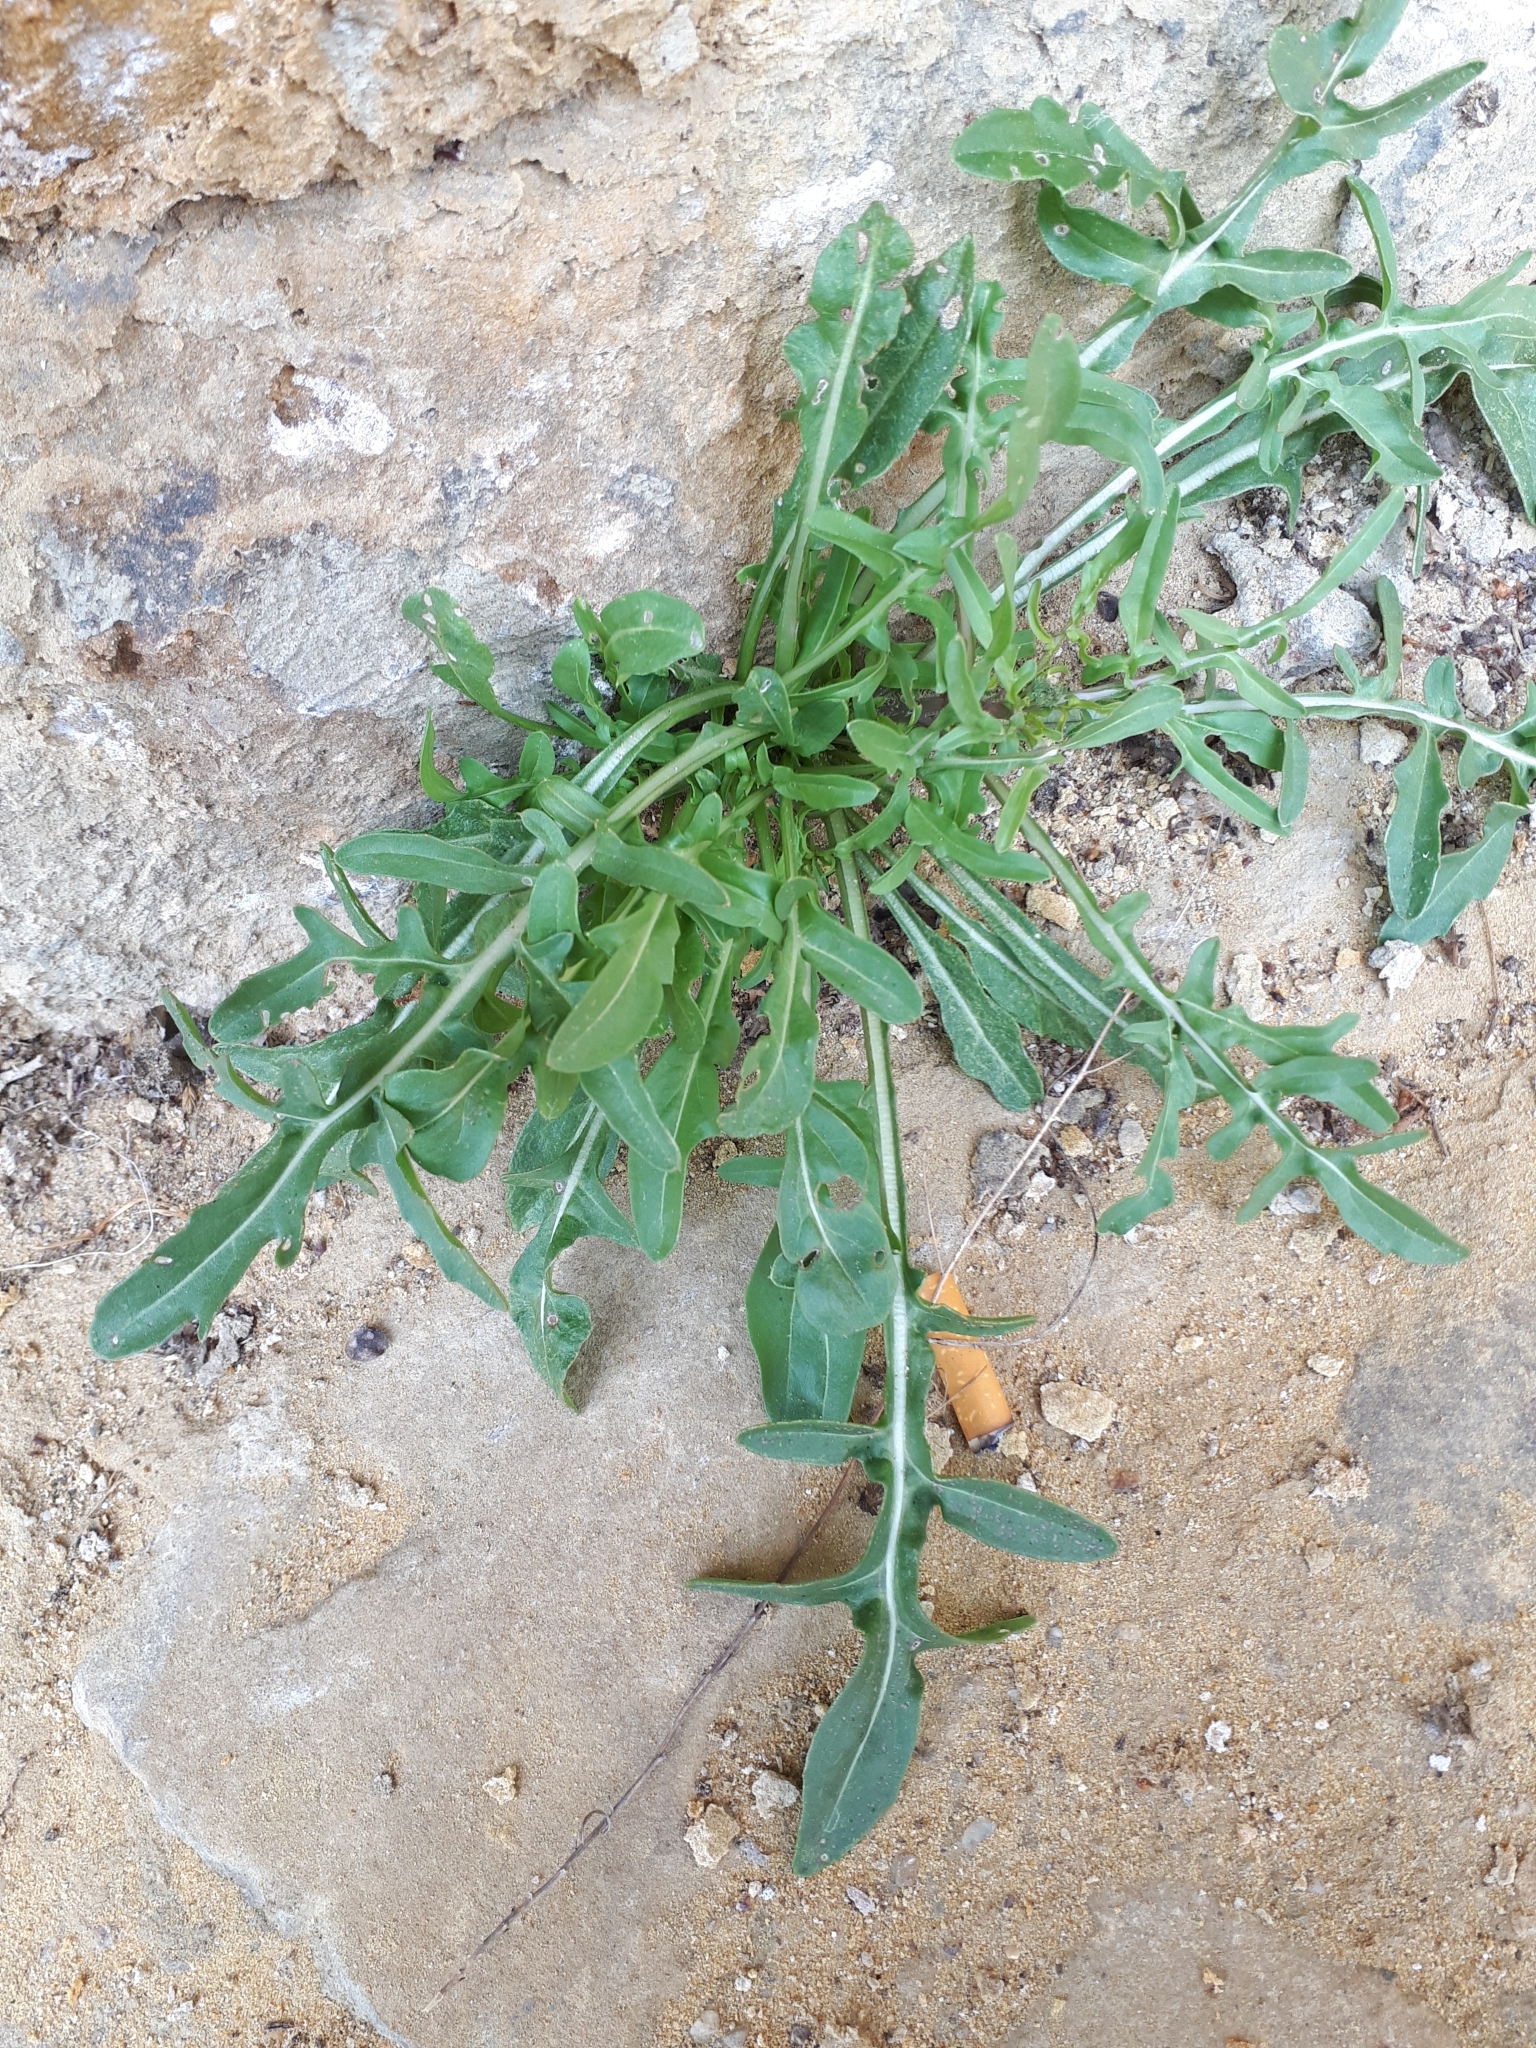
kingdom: Plantae
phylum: Tracheophyta
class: Magnoliopsida
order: Brassicales
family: Brassicaceae
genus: Diplotaxis
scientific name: Diplotaxis tenuifolia
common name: Perennial wall-rocket
